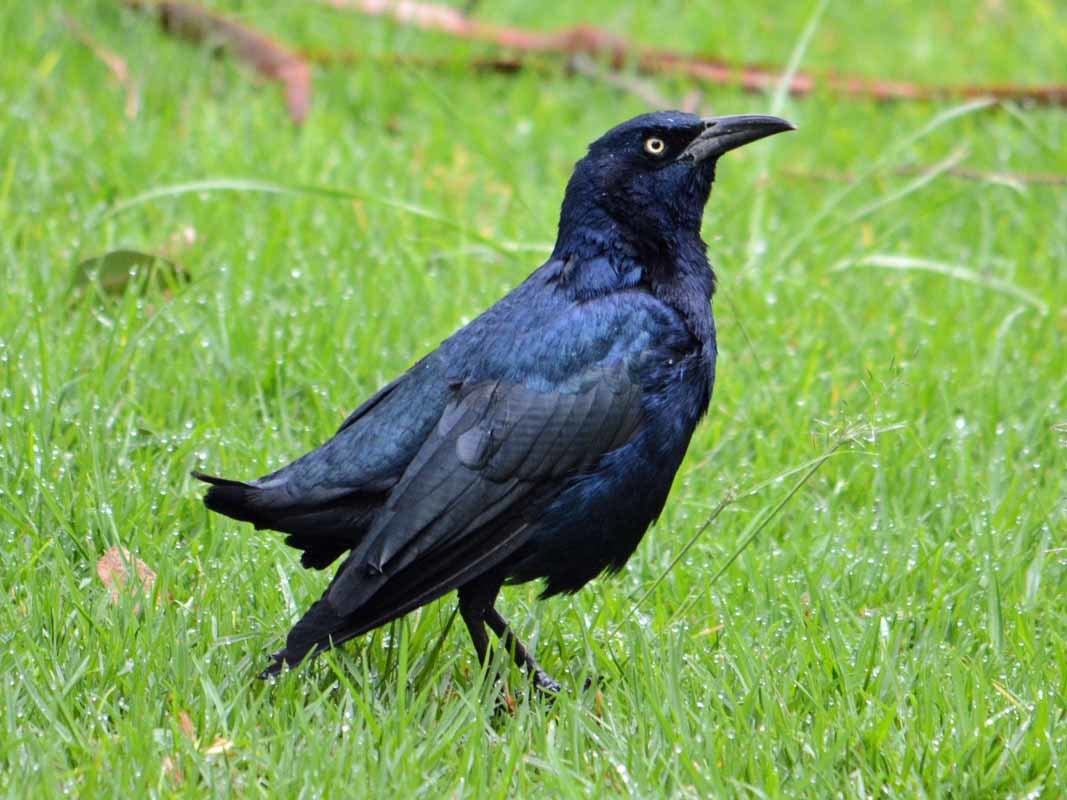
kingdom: Animalia
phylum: Chordata
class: Aves
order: Passeriformes
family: Icteridae
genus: Quiscalus
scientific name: Quiscalus mexicanus
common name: Great-tailed grackle
